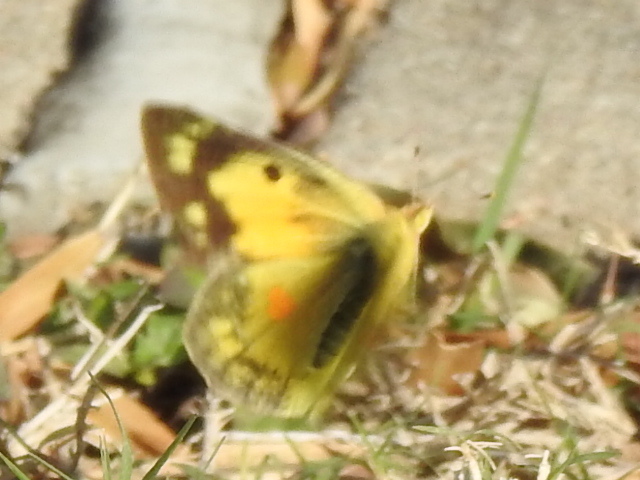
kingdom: Animalia
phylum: Arthropoda
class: Insecta
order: Lepidoptera
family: Pieridae
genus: Colias
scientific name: Colias eurytheme
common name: Alfalfa butterfly
